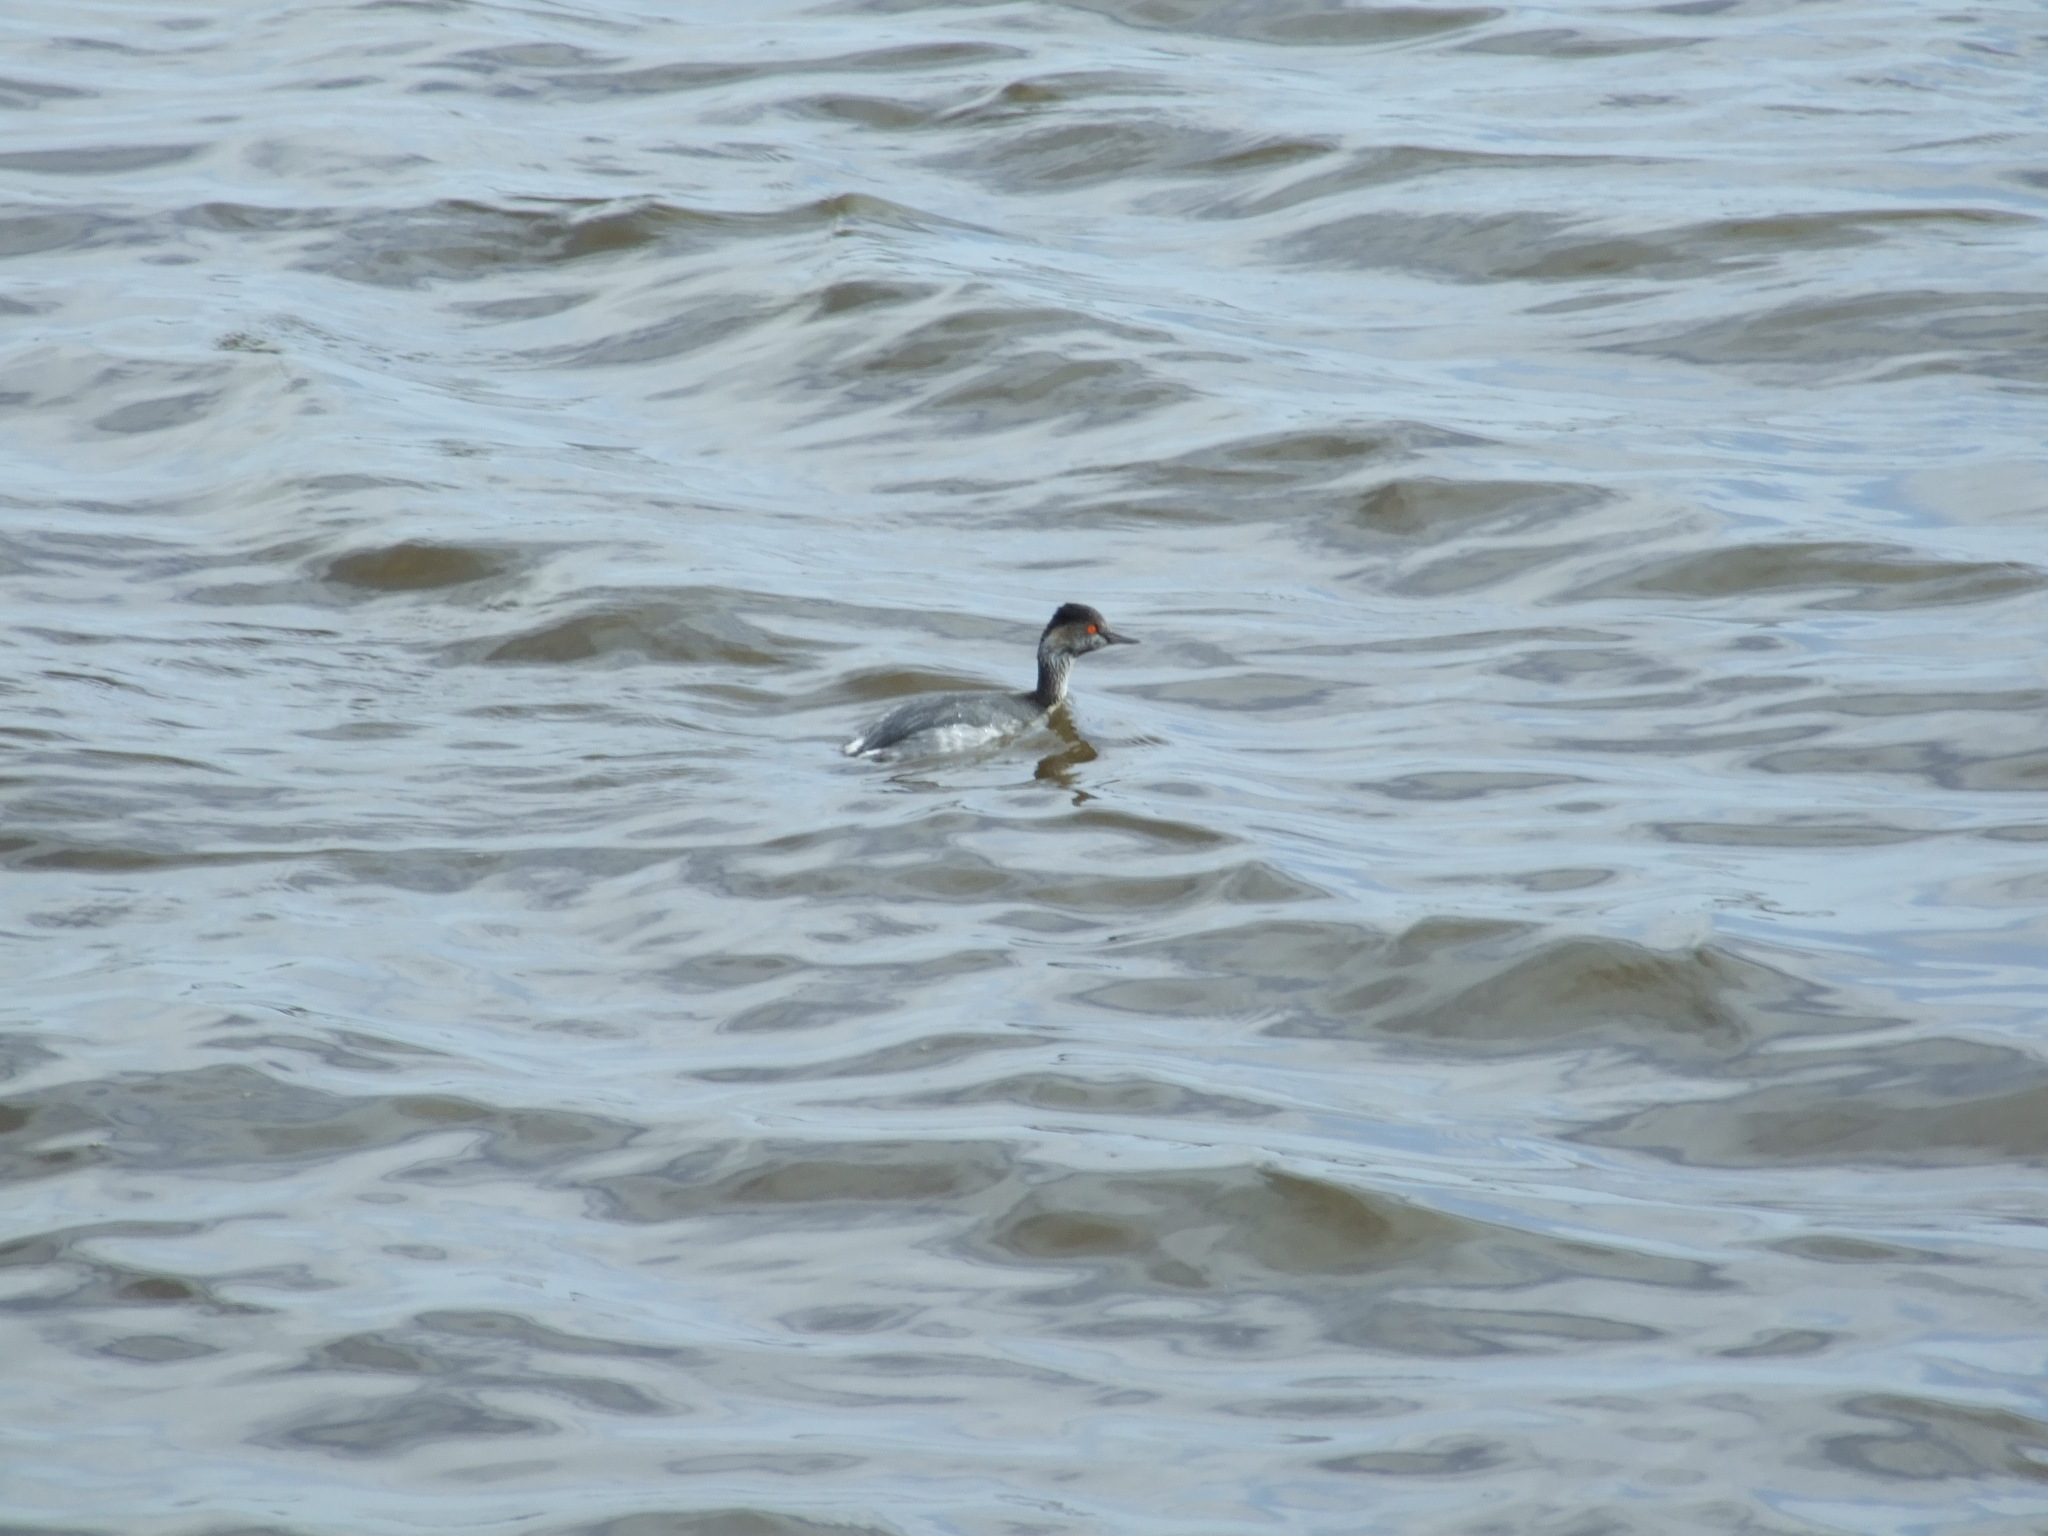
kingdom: Animalia
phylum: Chordata
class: Aves
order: Podicipediformes
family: Podicipedidae
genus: Podiceps
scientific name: Podiceps nigricollis
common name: Black-necked grebe
